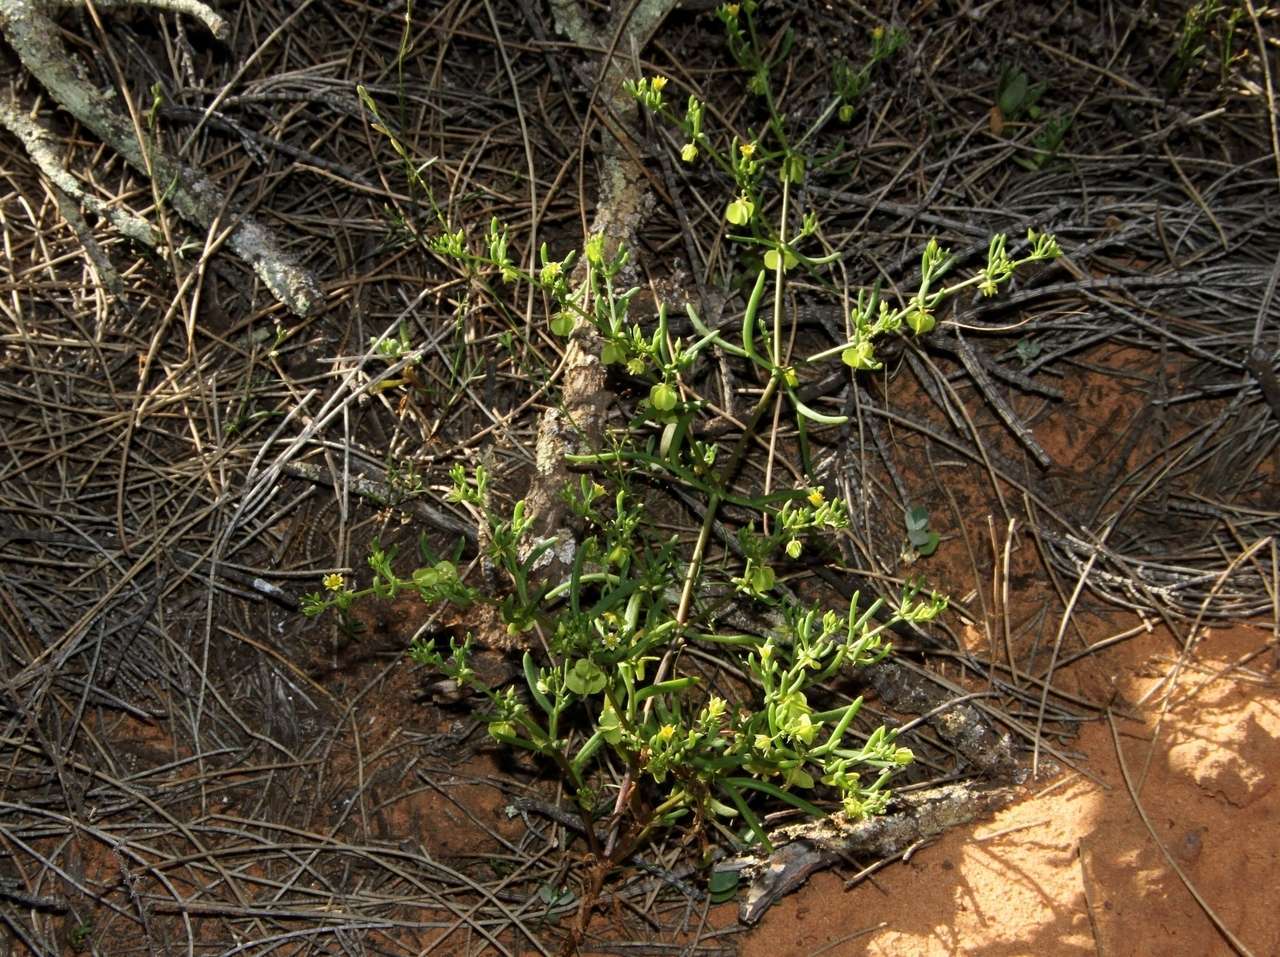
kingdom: Plantae
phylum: Tracheophyta
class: Magnoliopsida
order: Zygophyllales
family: Zygophyllaceae
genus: Roepera
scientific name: Roepera eremaea
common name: Climbing twinleaf
